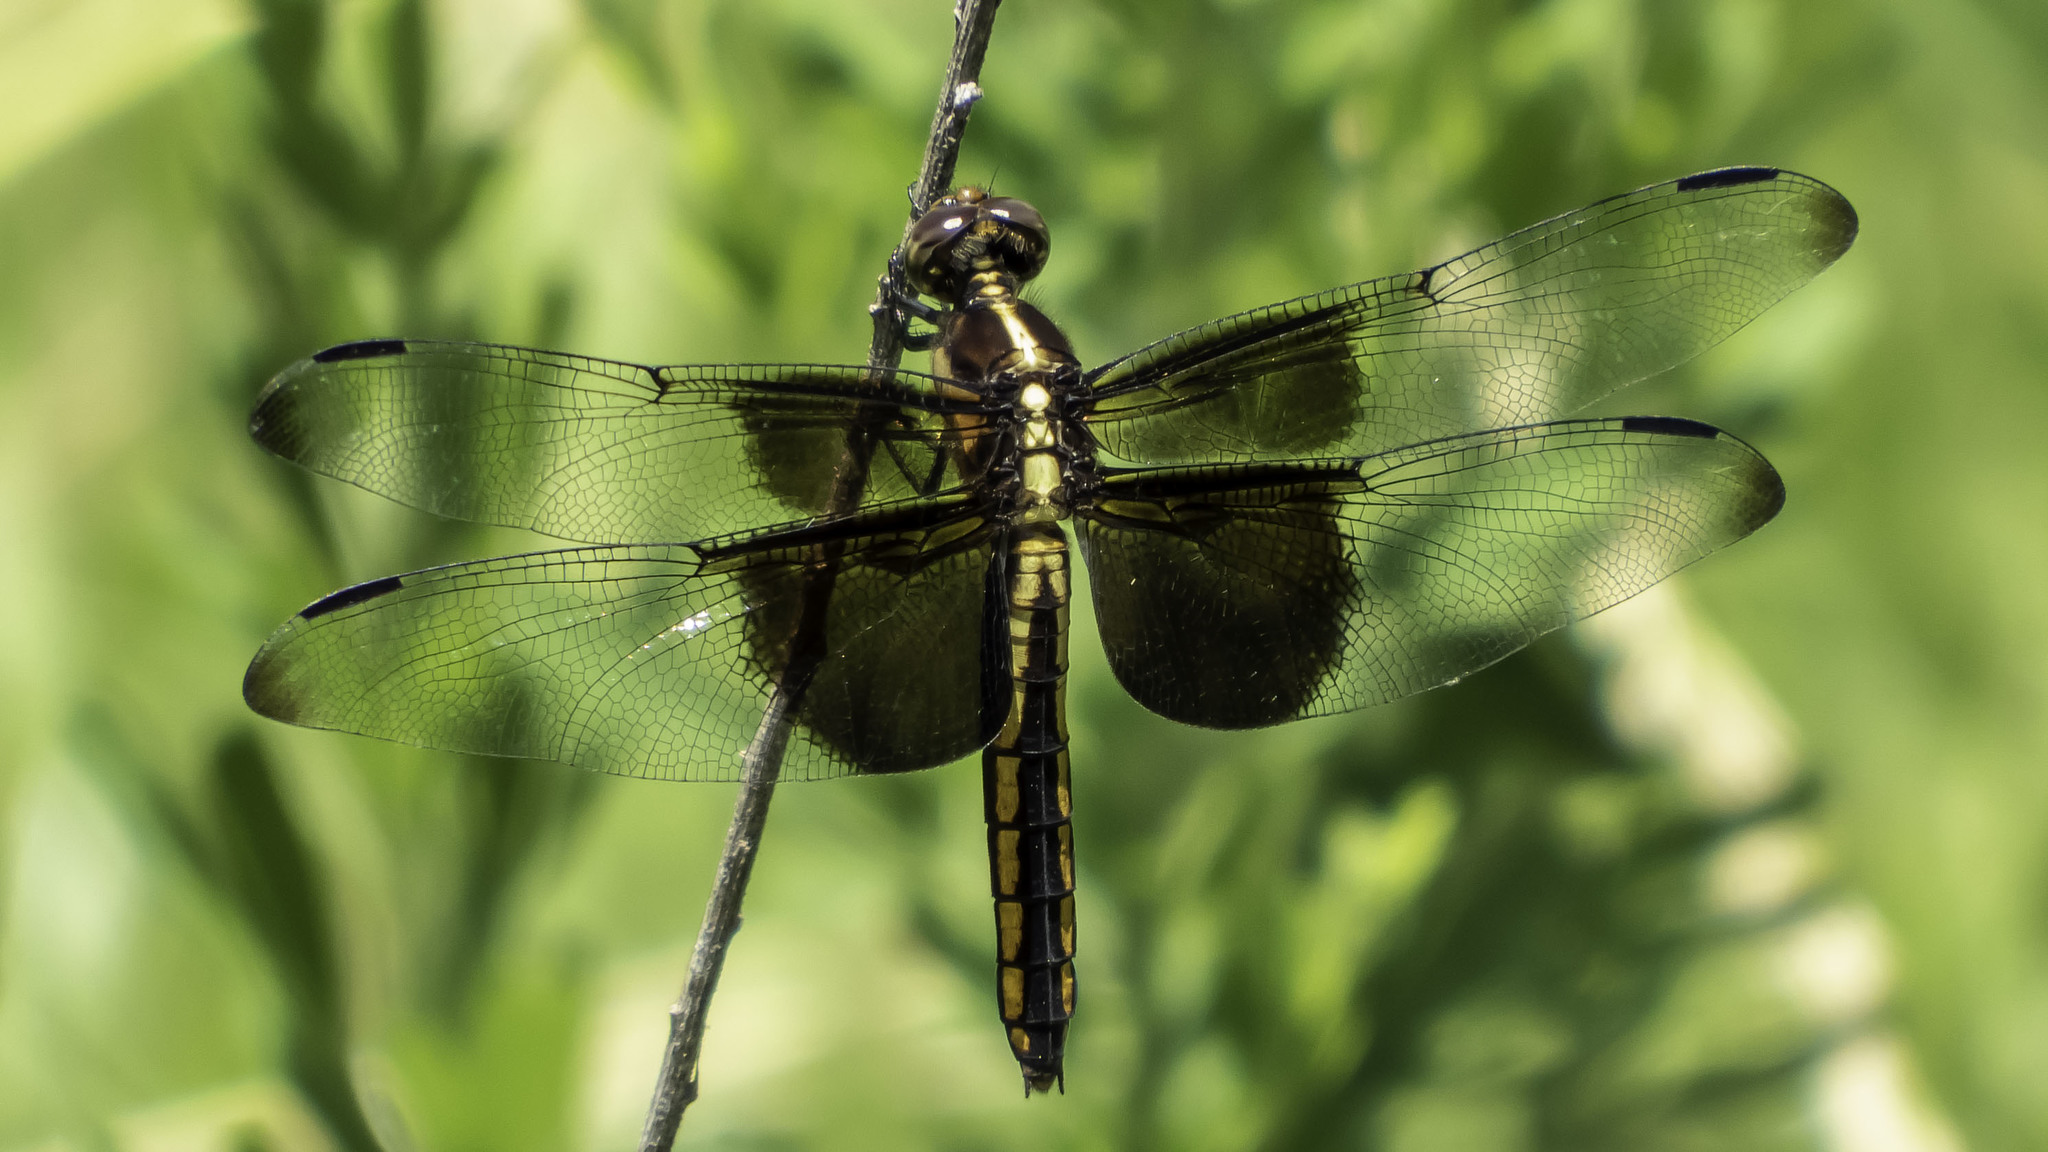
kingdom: Animalia
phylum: Arthropoda
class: Insecta
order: Odonata
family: Libellulidae
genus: Libellula
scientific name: Libellula luctuosa
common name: Widow skimmer
